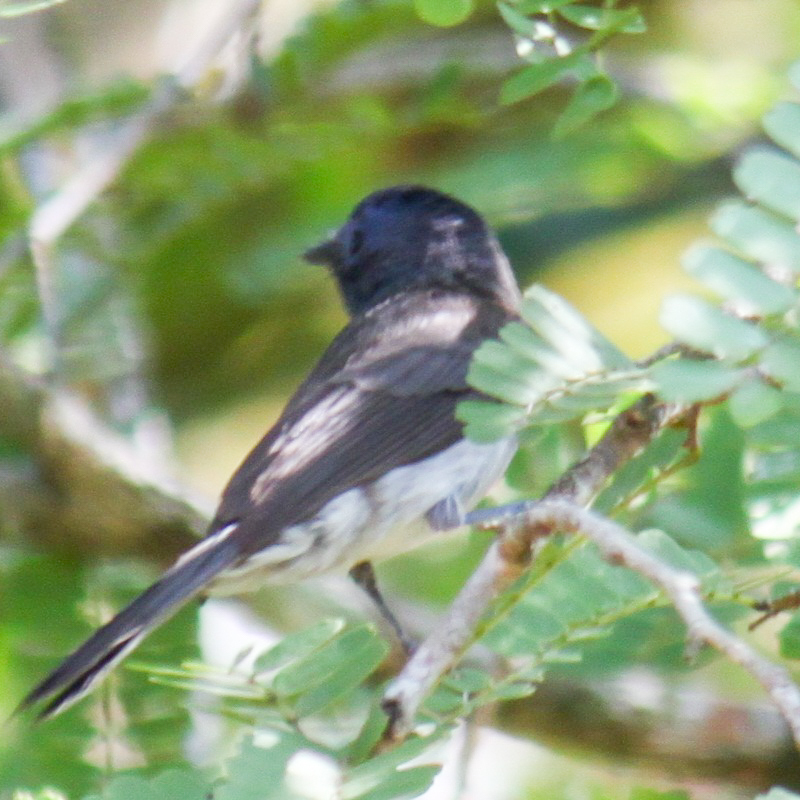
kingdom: Animalia
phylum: Chordata
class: Aves
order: Passeriformes
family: Monarchidae
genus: Hypothymis
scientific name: Hypothymis azurea
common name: Black-naped monarch
